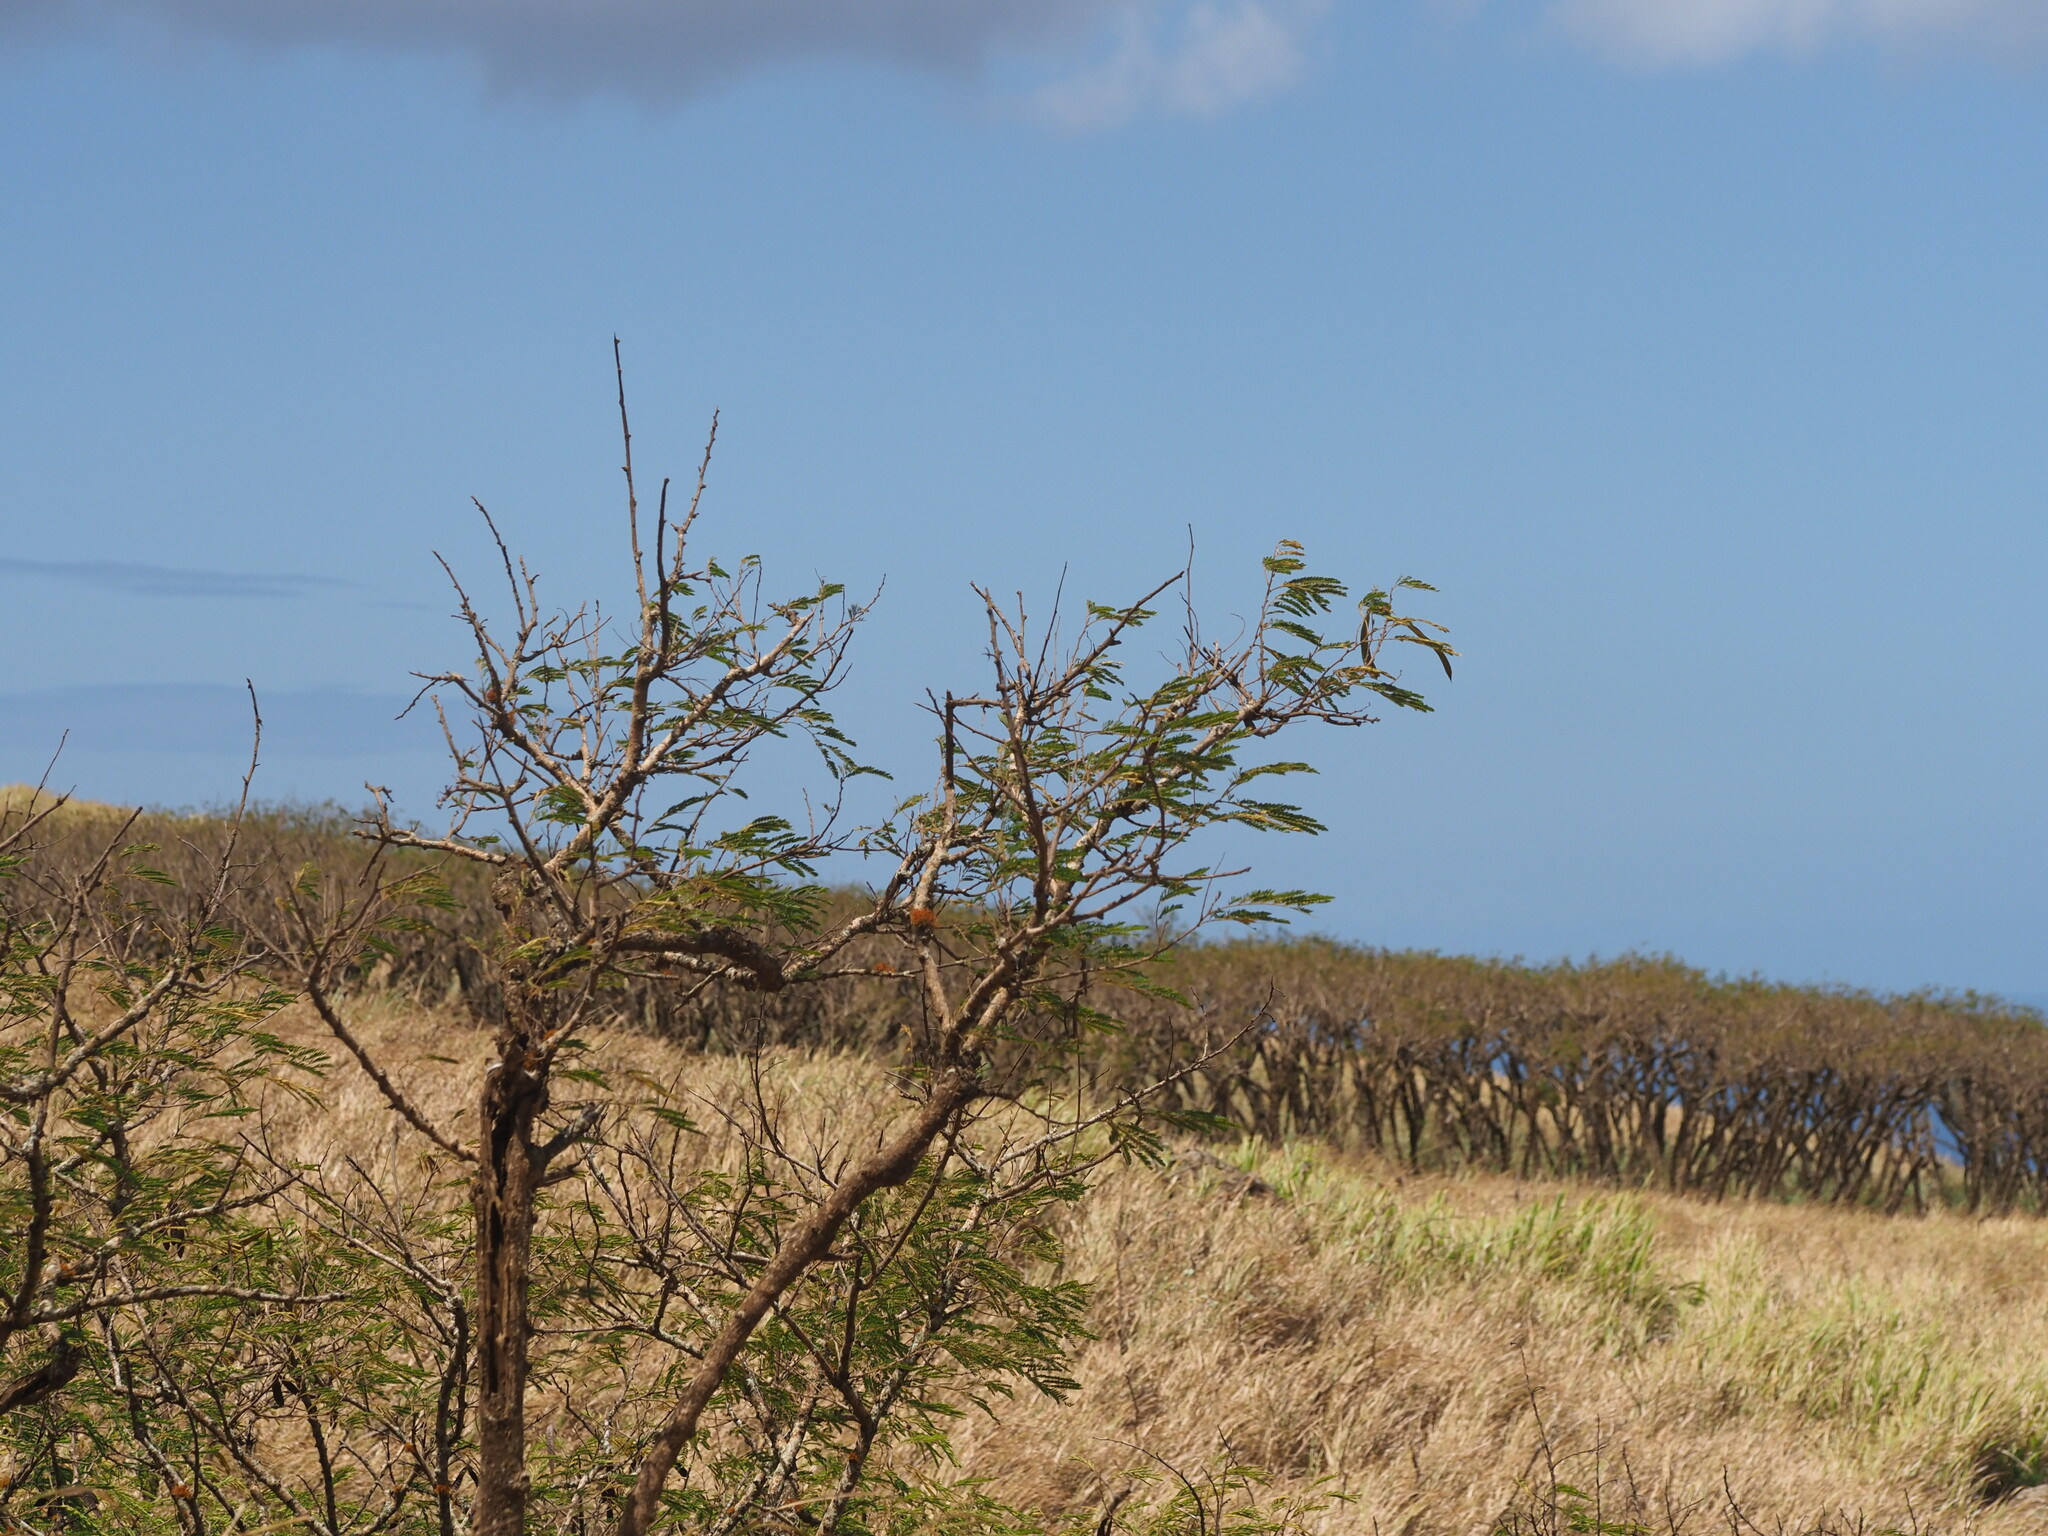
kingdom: Plantae
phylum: Tracheophyta
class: Magnoliopsida
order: Fabales
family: Fabaceae
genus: Leucaena
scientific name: Leucaena leucocephala
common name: White leadtree
